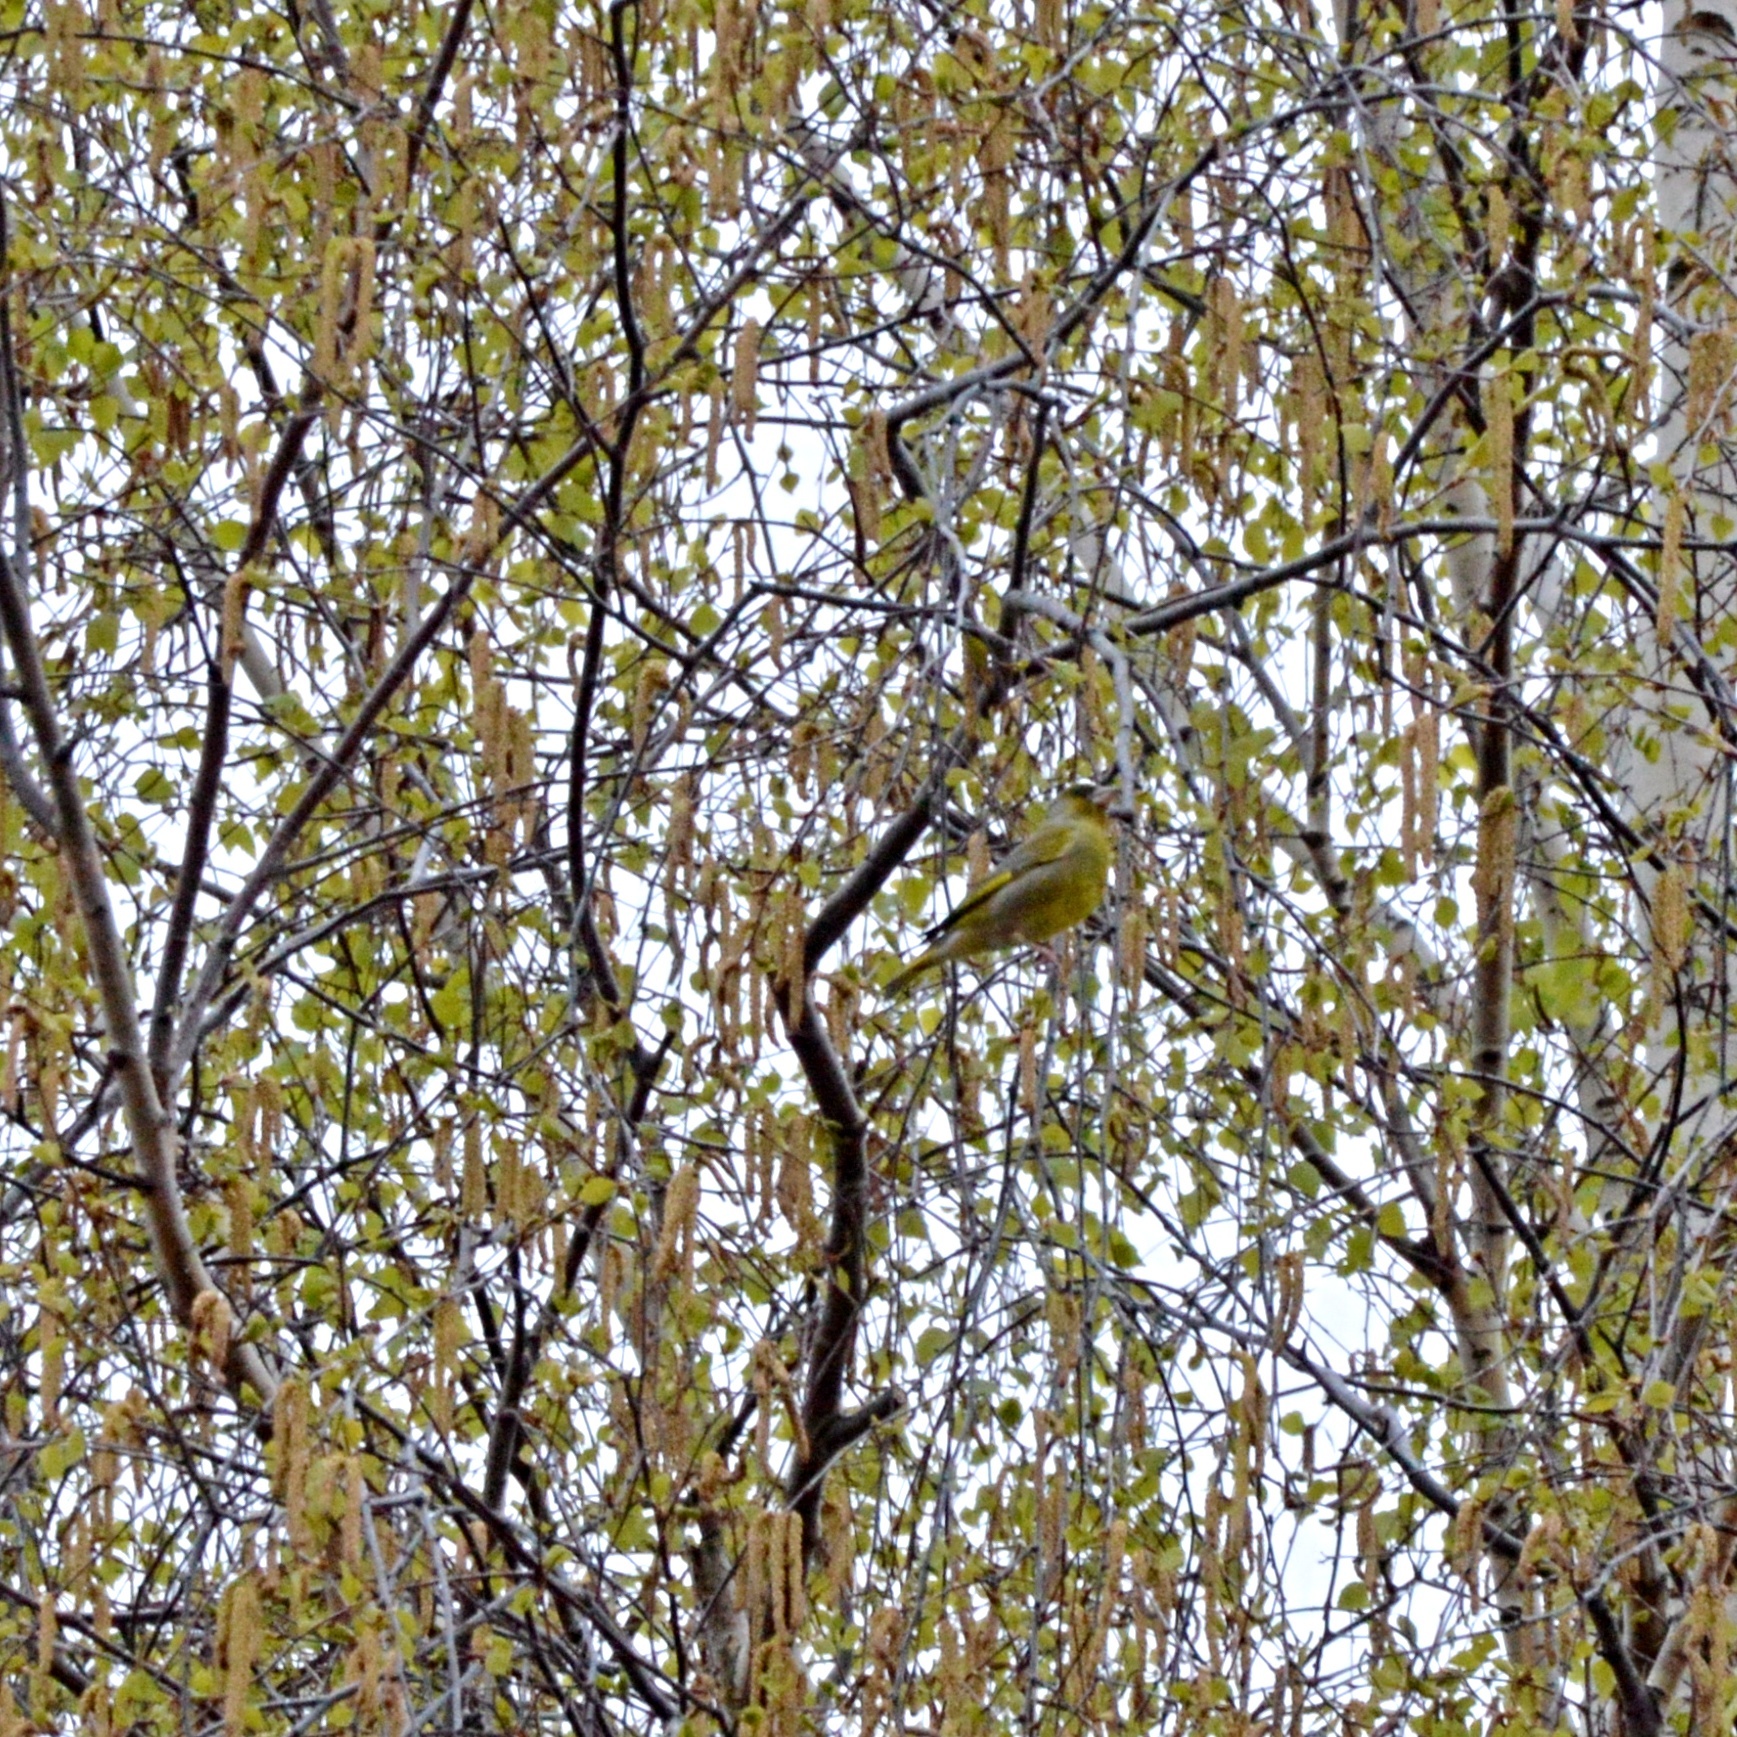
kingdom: Plantae
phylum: Tracheophyta
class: Liliopsida
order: Poales
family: Poaceae
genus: Chloris
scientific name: Chloris chloris
